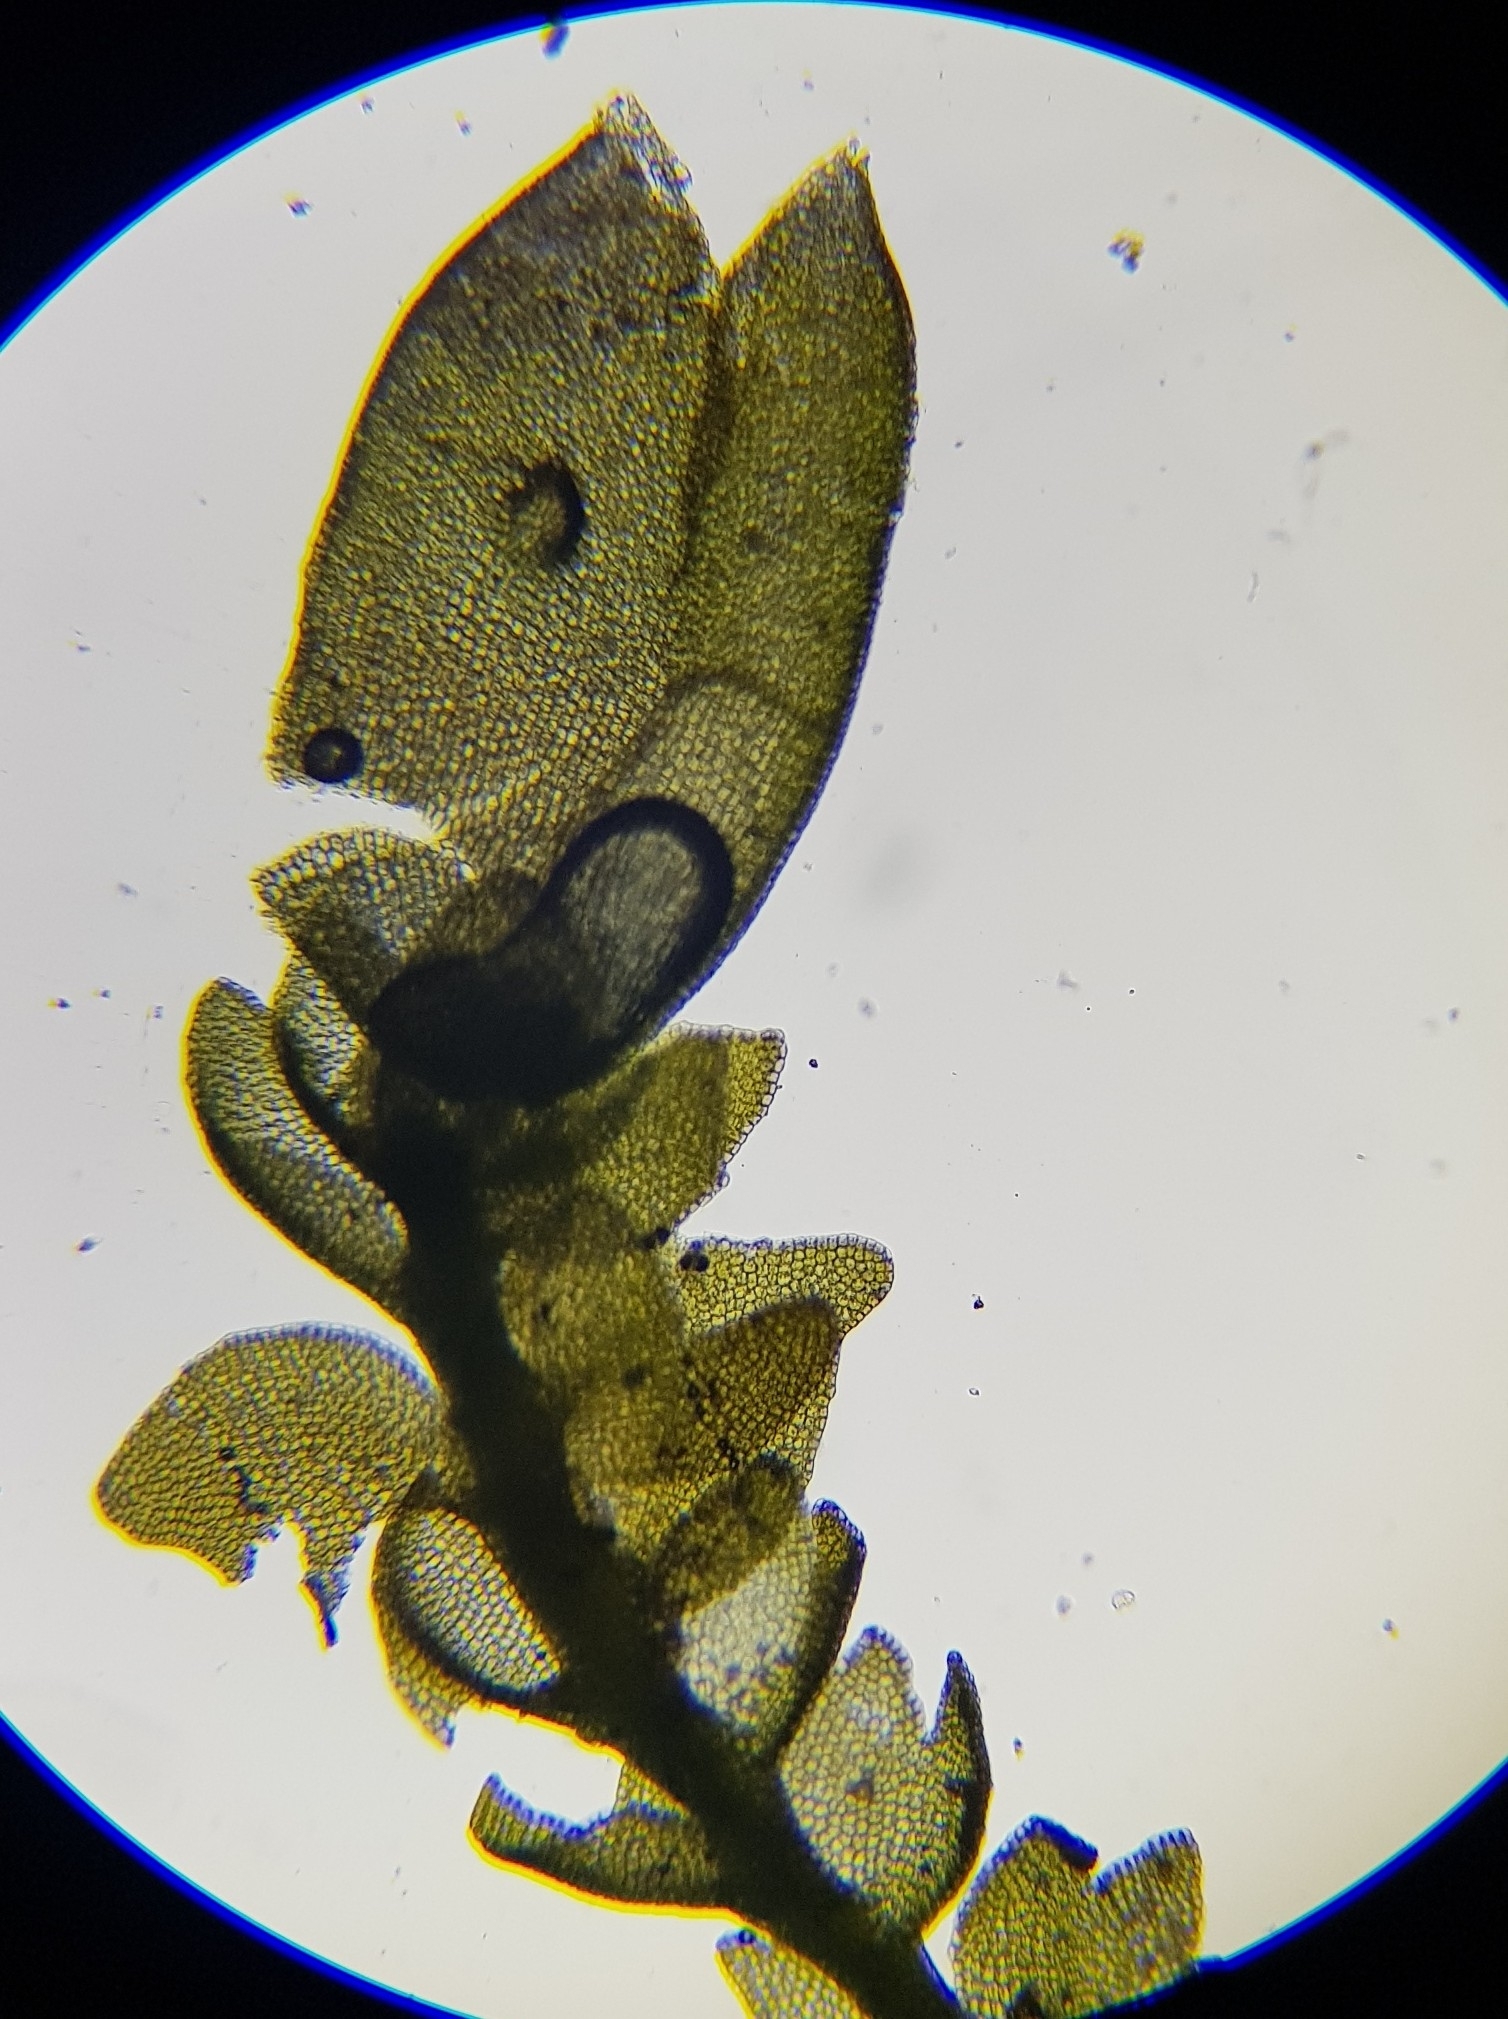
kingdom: Plantae
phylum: Marchantiophyta
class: Jungermanniopsida
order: Jungermanniales
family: Anastrophyllaceae
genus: Gymnocolea
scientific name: Gymnocolea inflata
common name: Inflated notchwort
